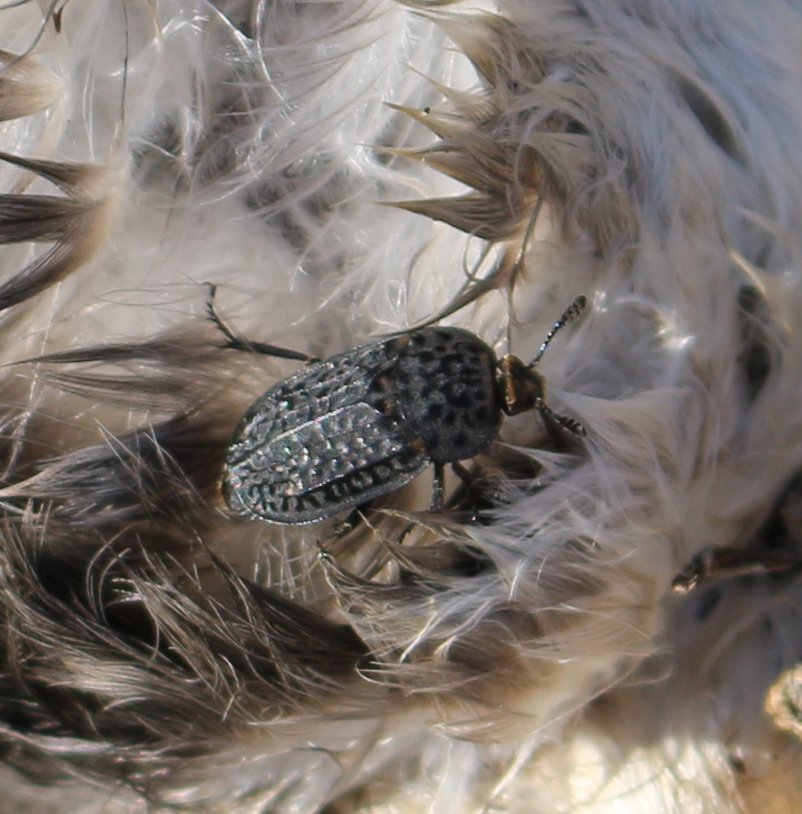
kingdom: Animalia
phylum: Arthropoda
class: Insecta
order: Coleoptera
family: Staphylinidae
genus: Thanatophilus
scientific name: Thanatophilus rugosus
